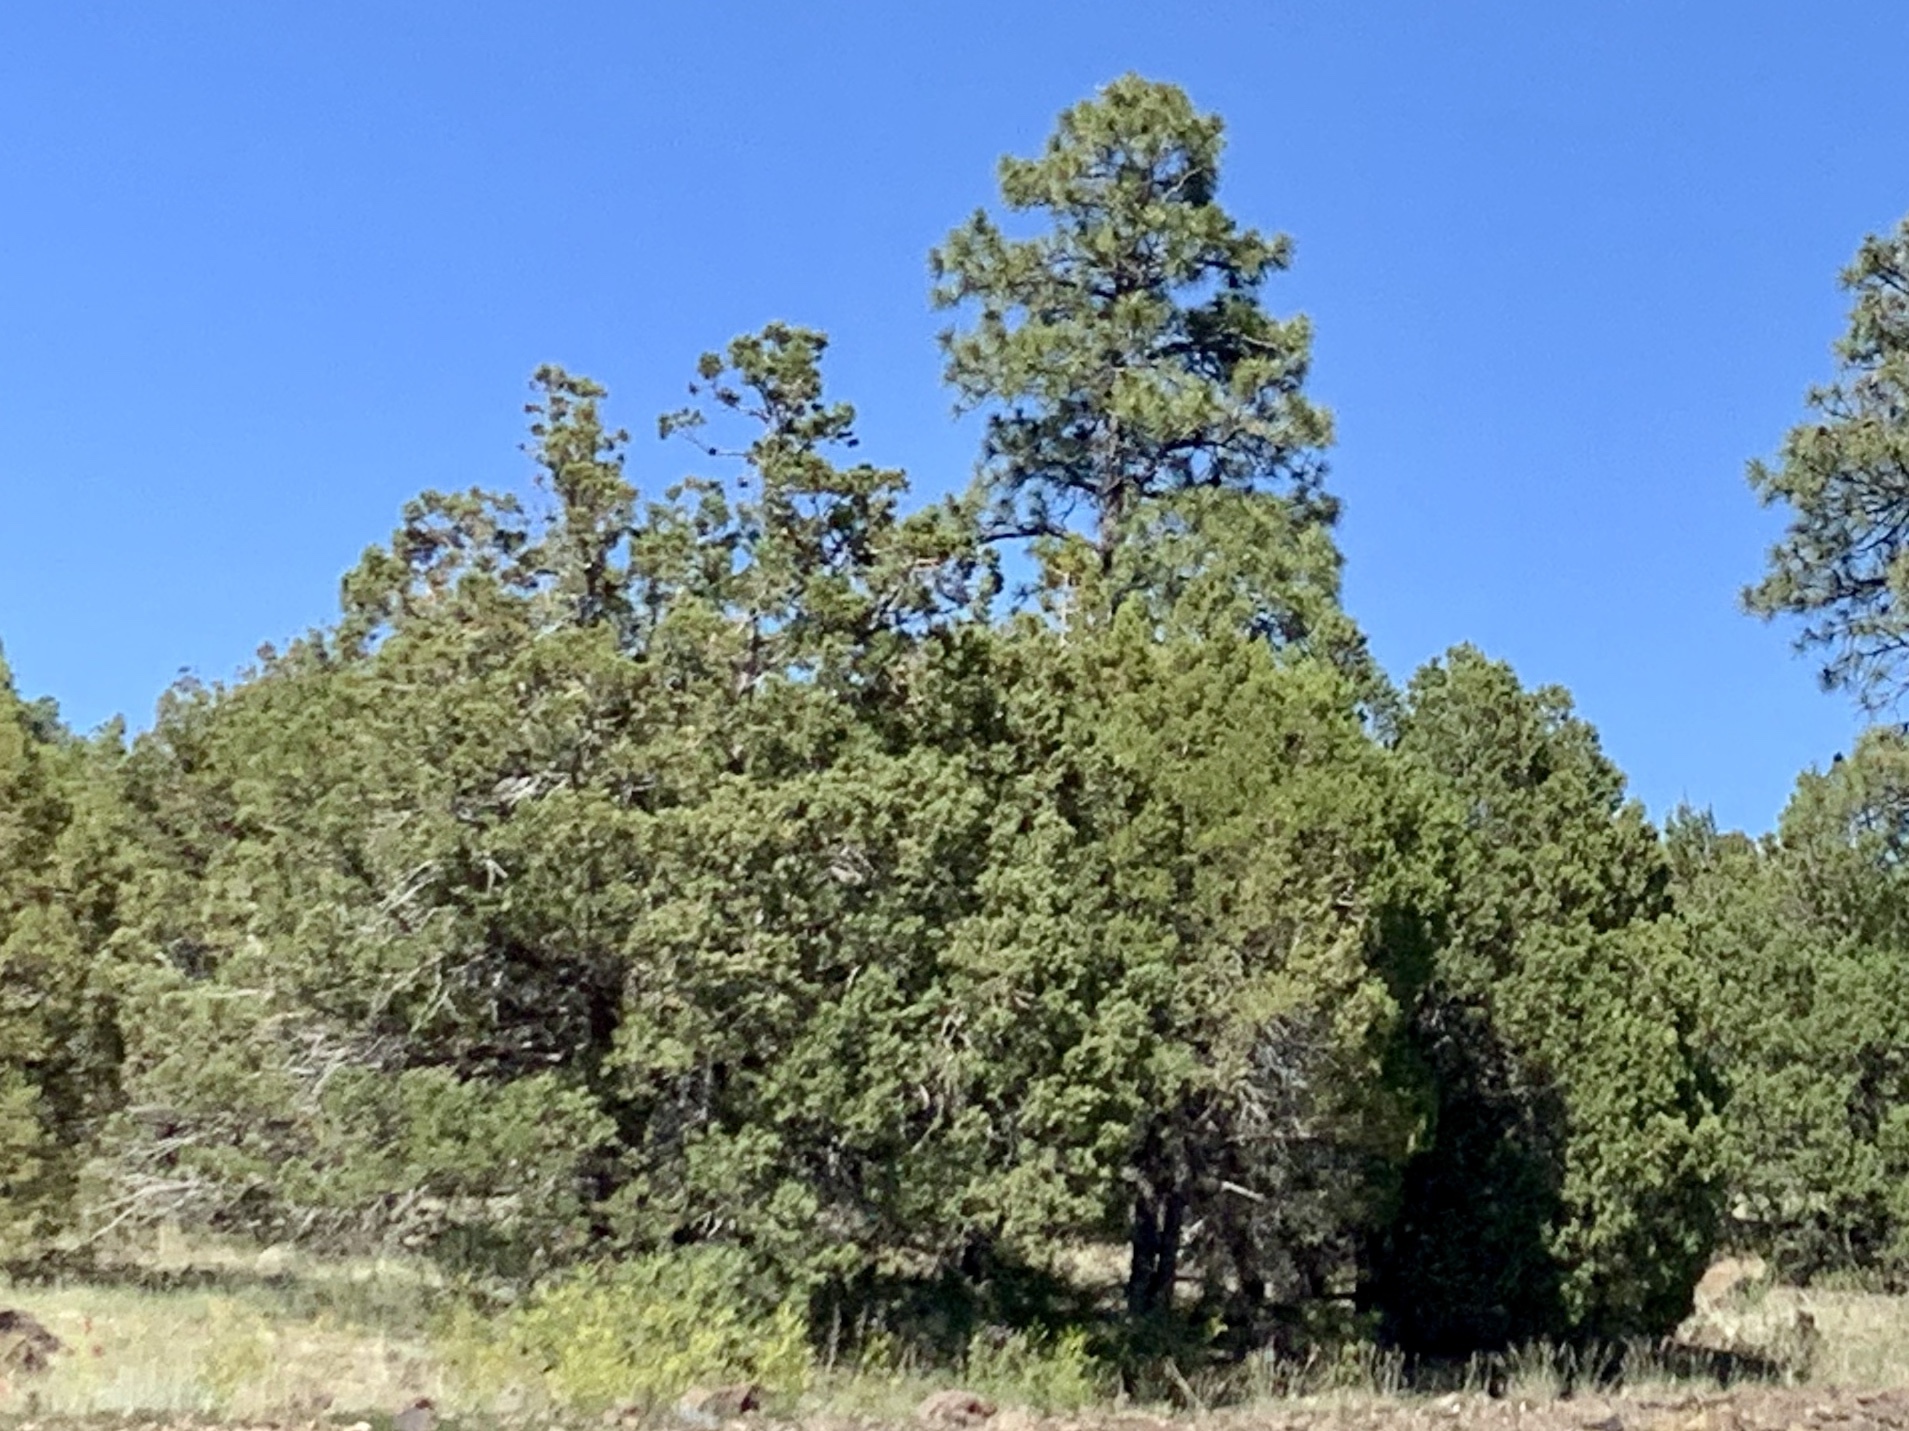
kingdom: Plantae
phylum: Tracheophyta
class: Pinopsida
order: Pinales
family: Pinaceae
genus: Pinus
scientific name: Pinus ponderosa
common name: Western yellow-pine
